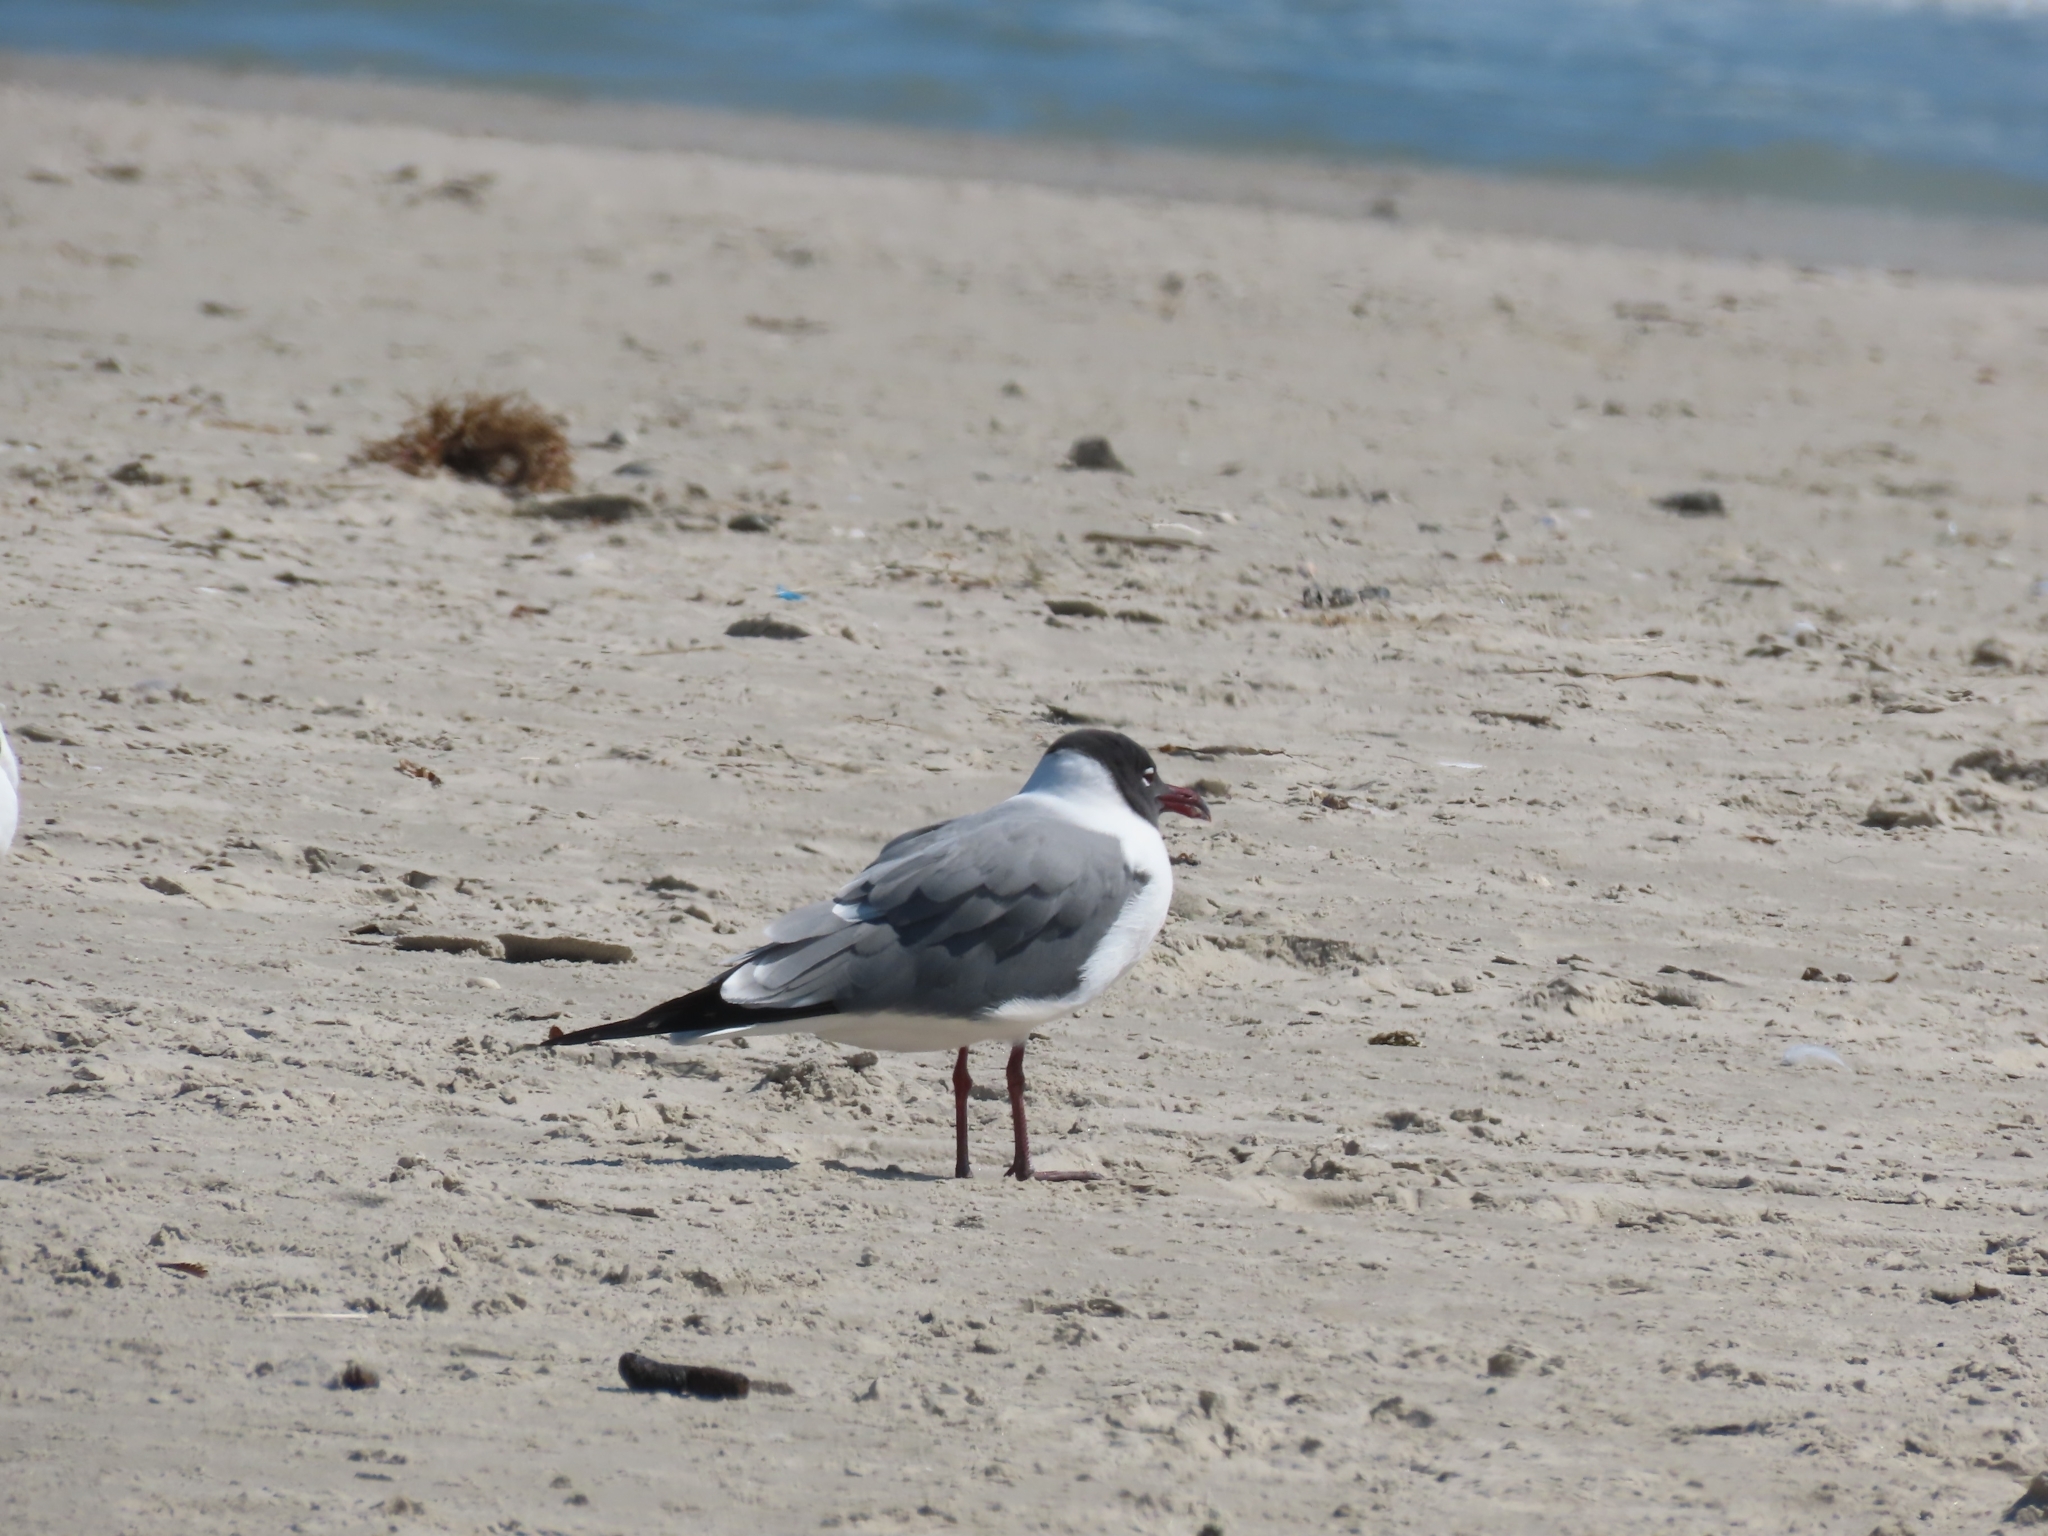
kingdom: Animalia
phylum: Chordata
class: Aves
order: Charadriiformes
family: Laridae
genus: Leucophaeus
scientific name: Leucophaeus atricilla
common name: Laughing gull
